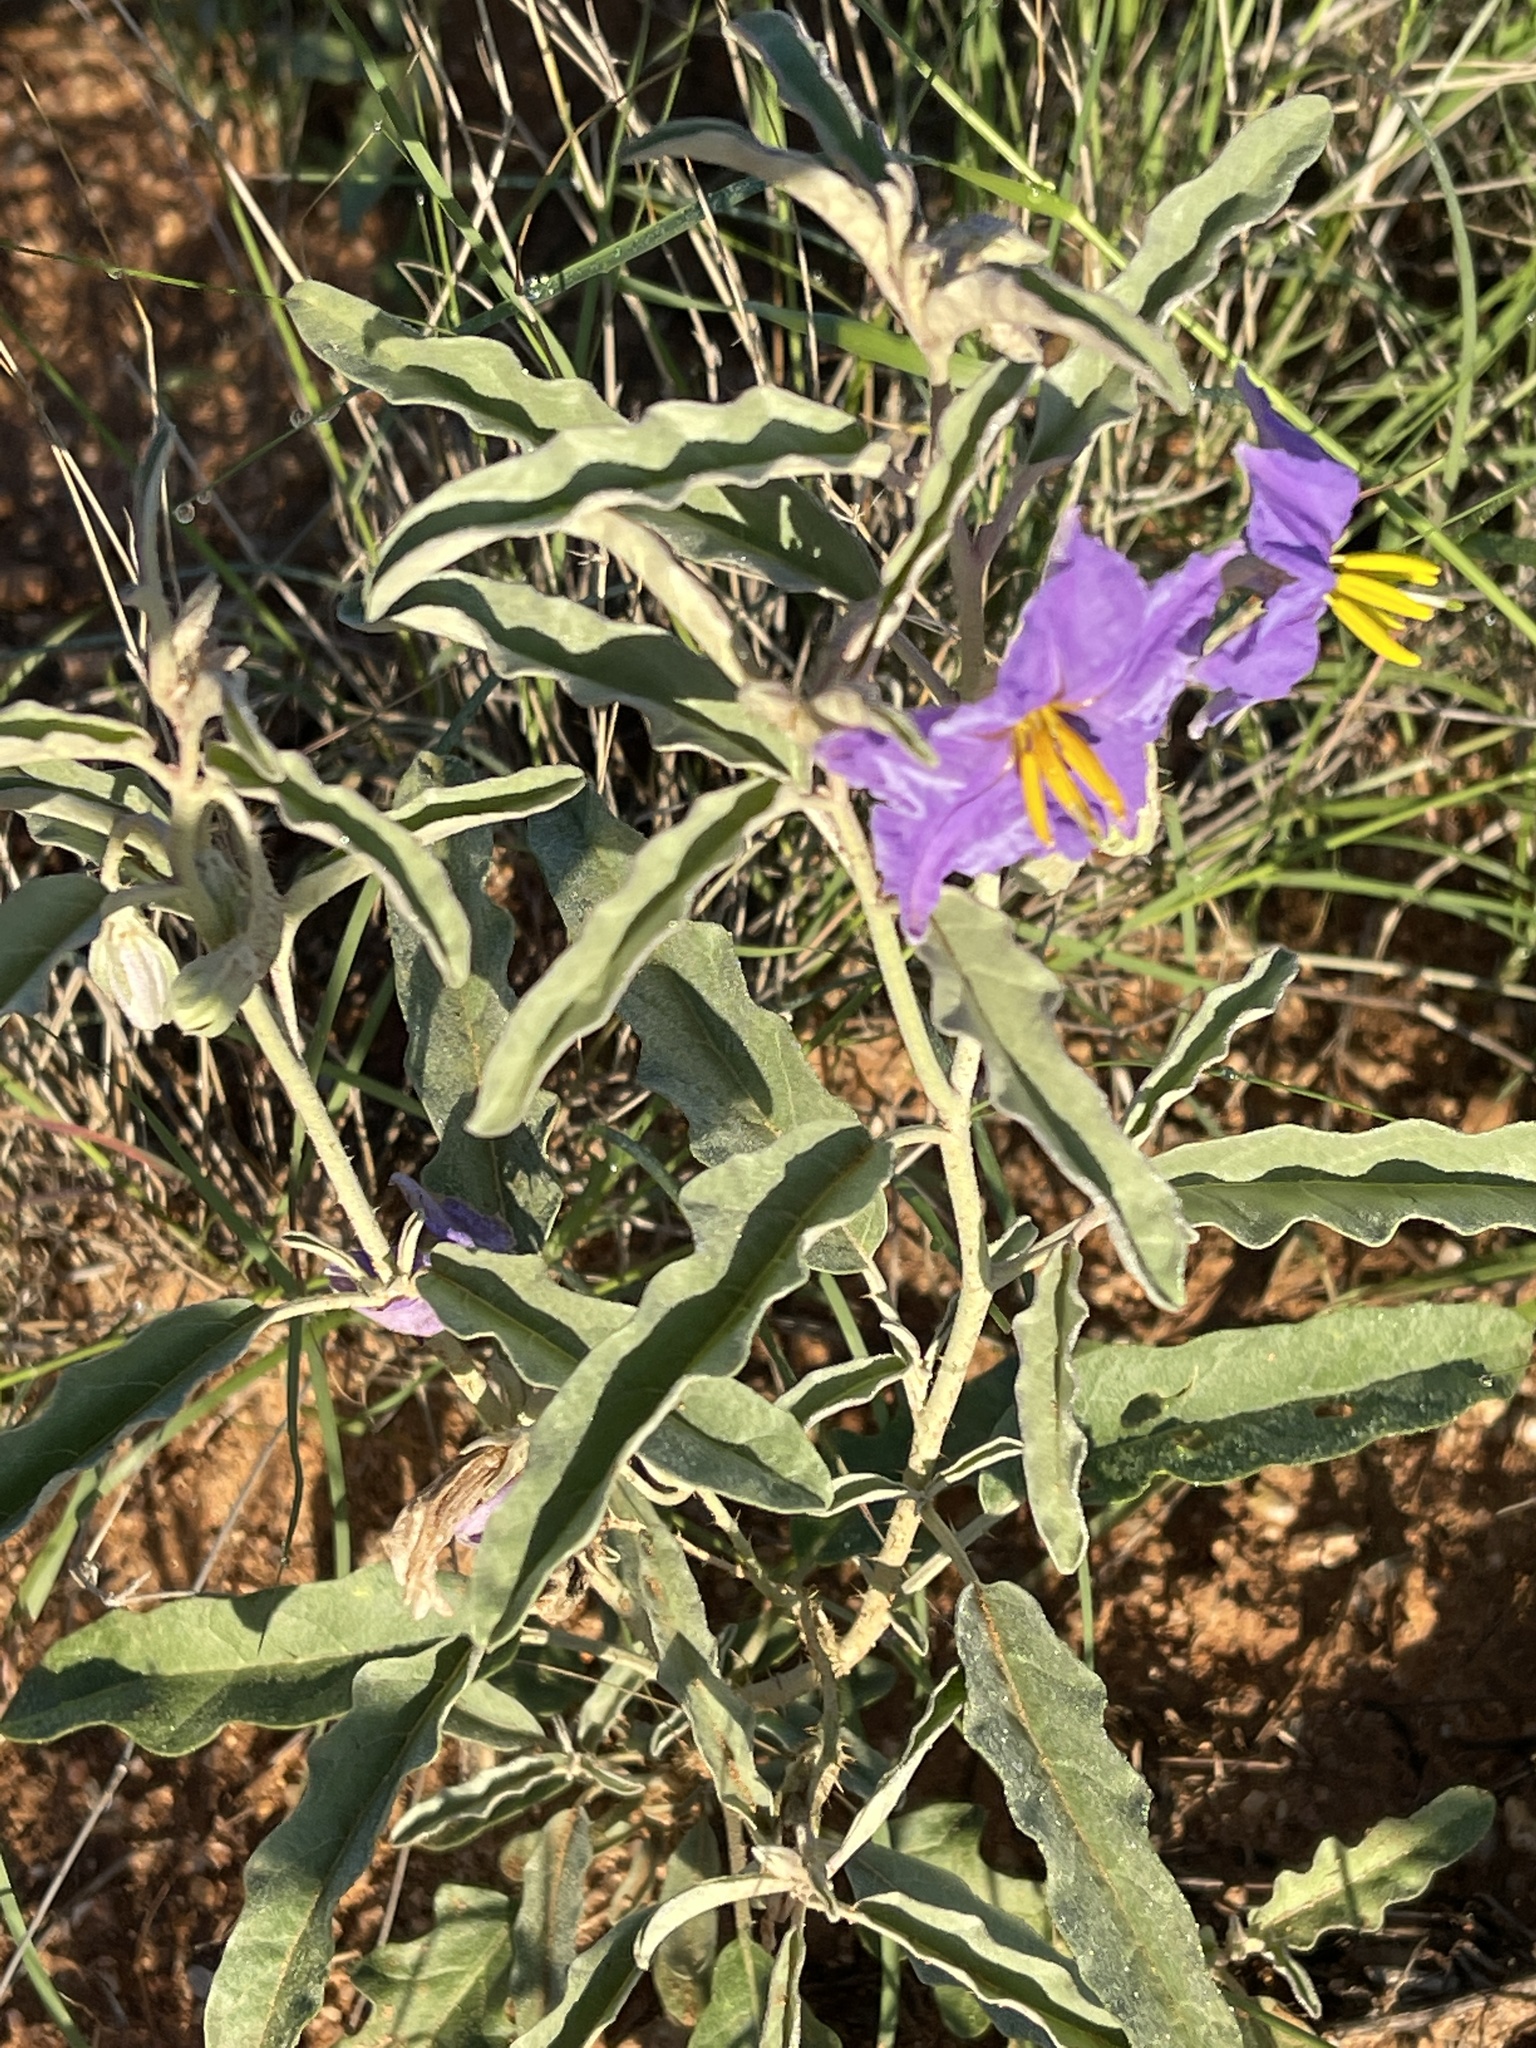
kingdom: Plantae
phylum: Tracheophyta
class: Magnoliopsida
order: Solanales
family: Solanaceae
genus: Solanum
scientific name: Solanum elaeagnifolium
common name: Silverleaf nightshade
